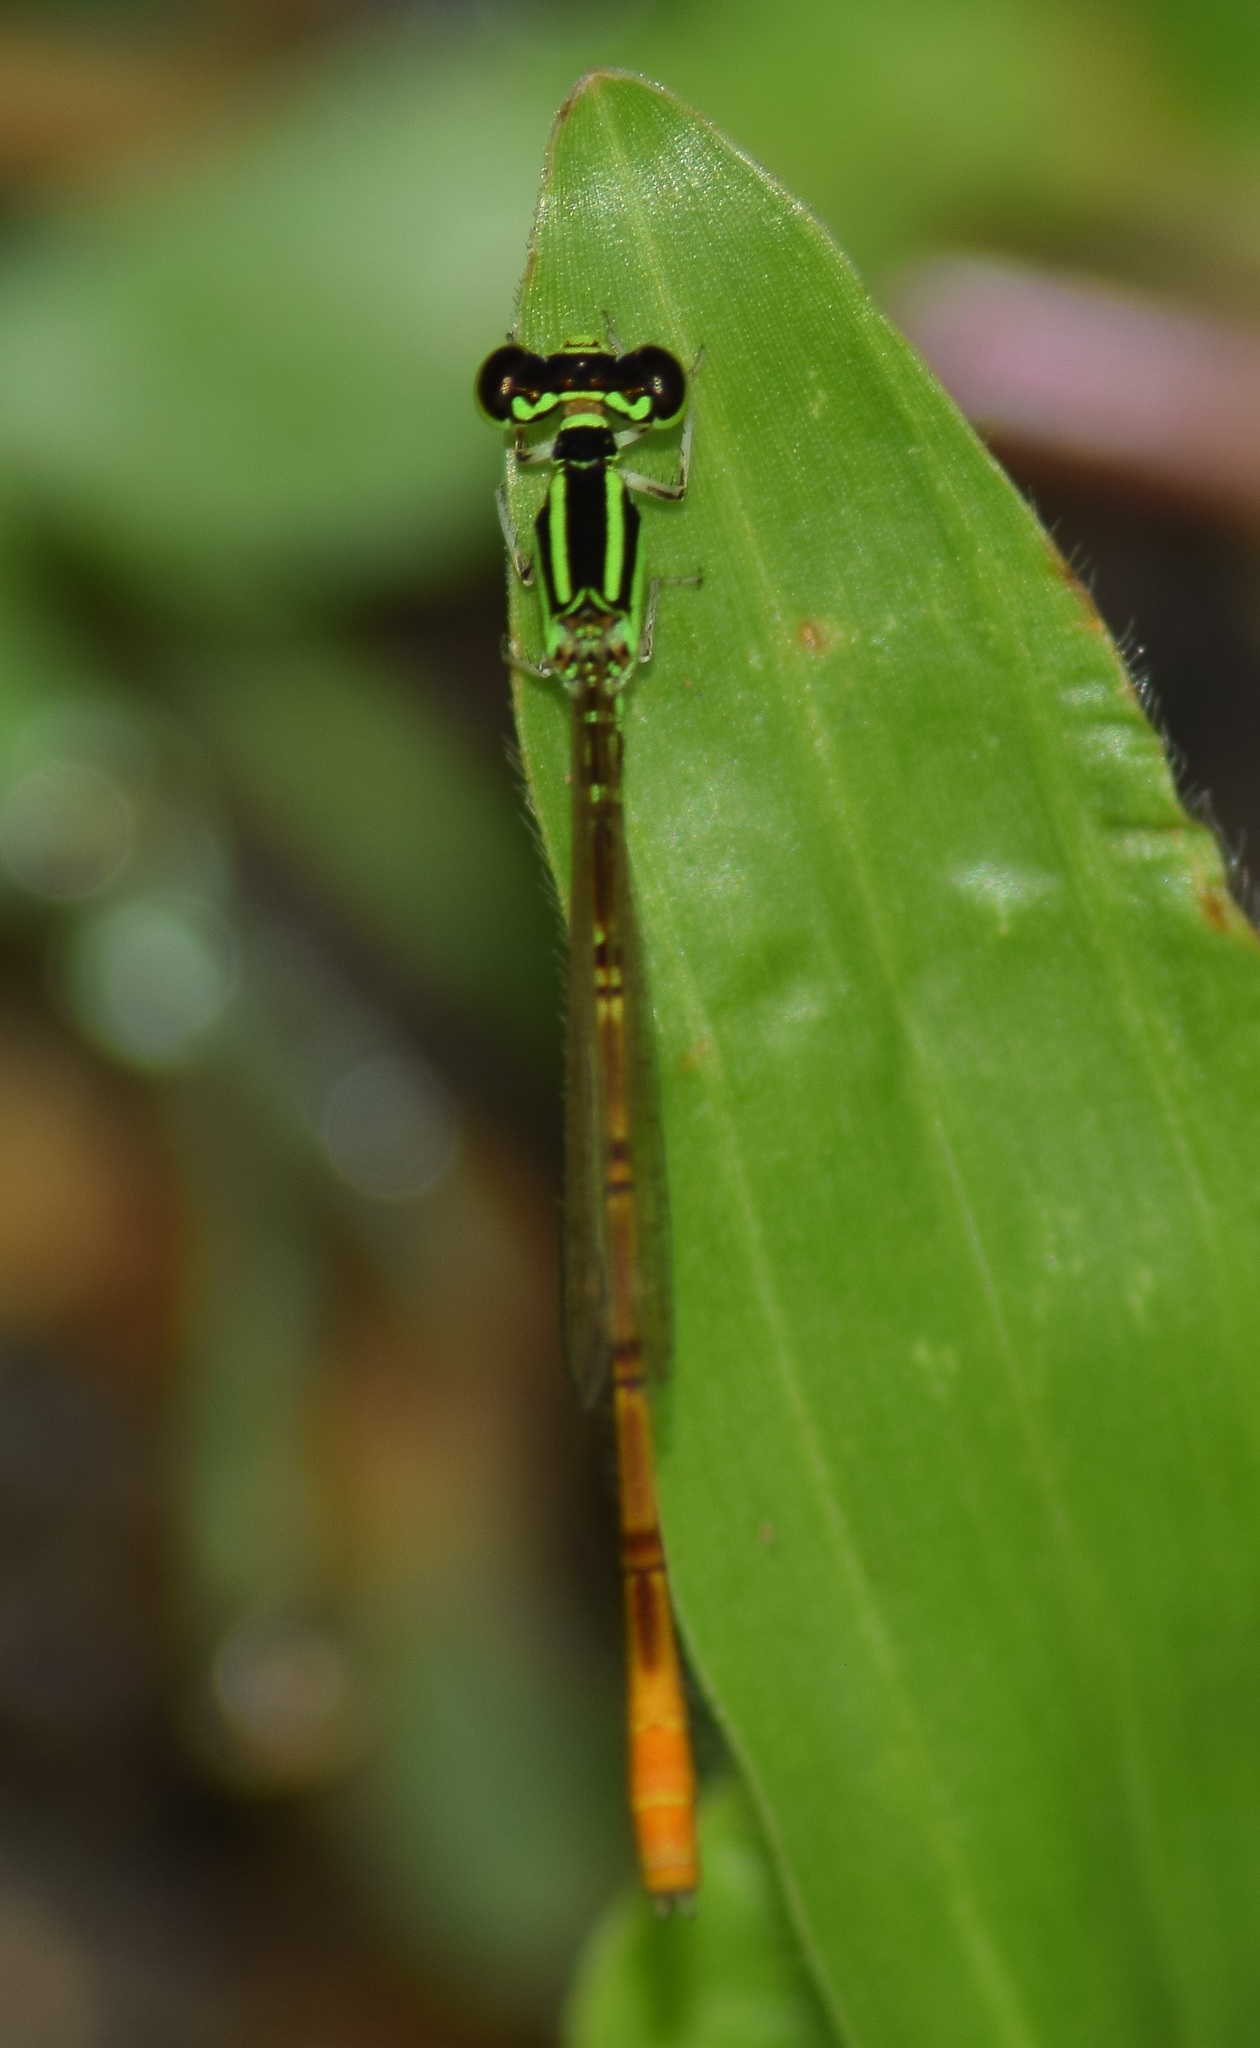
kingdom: Animalia
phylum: Arthropoda
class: Insecta
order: Odonata
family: Coenagrionidae
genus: Agriocnemis
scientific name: Agriocnemis keralensis
